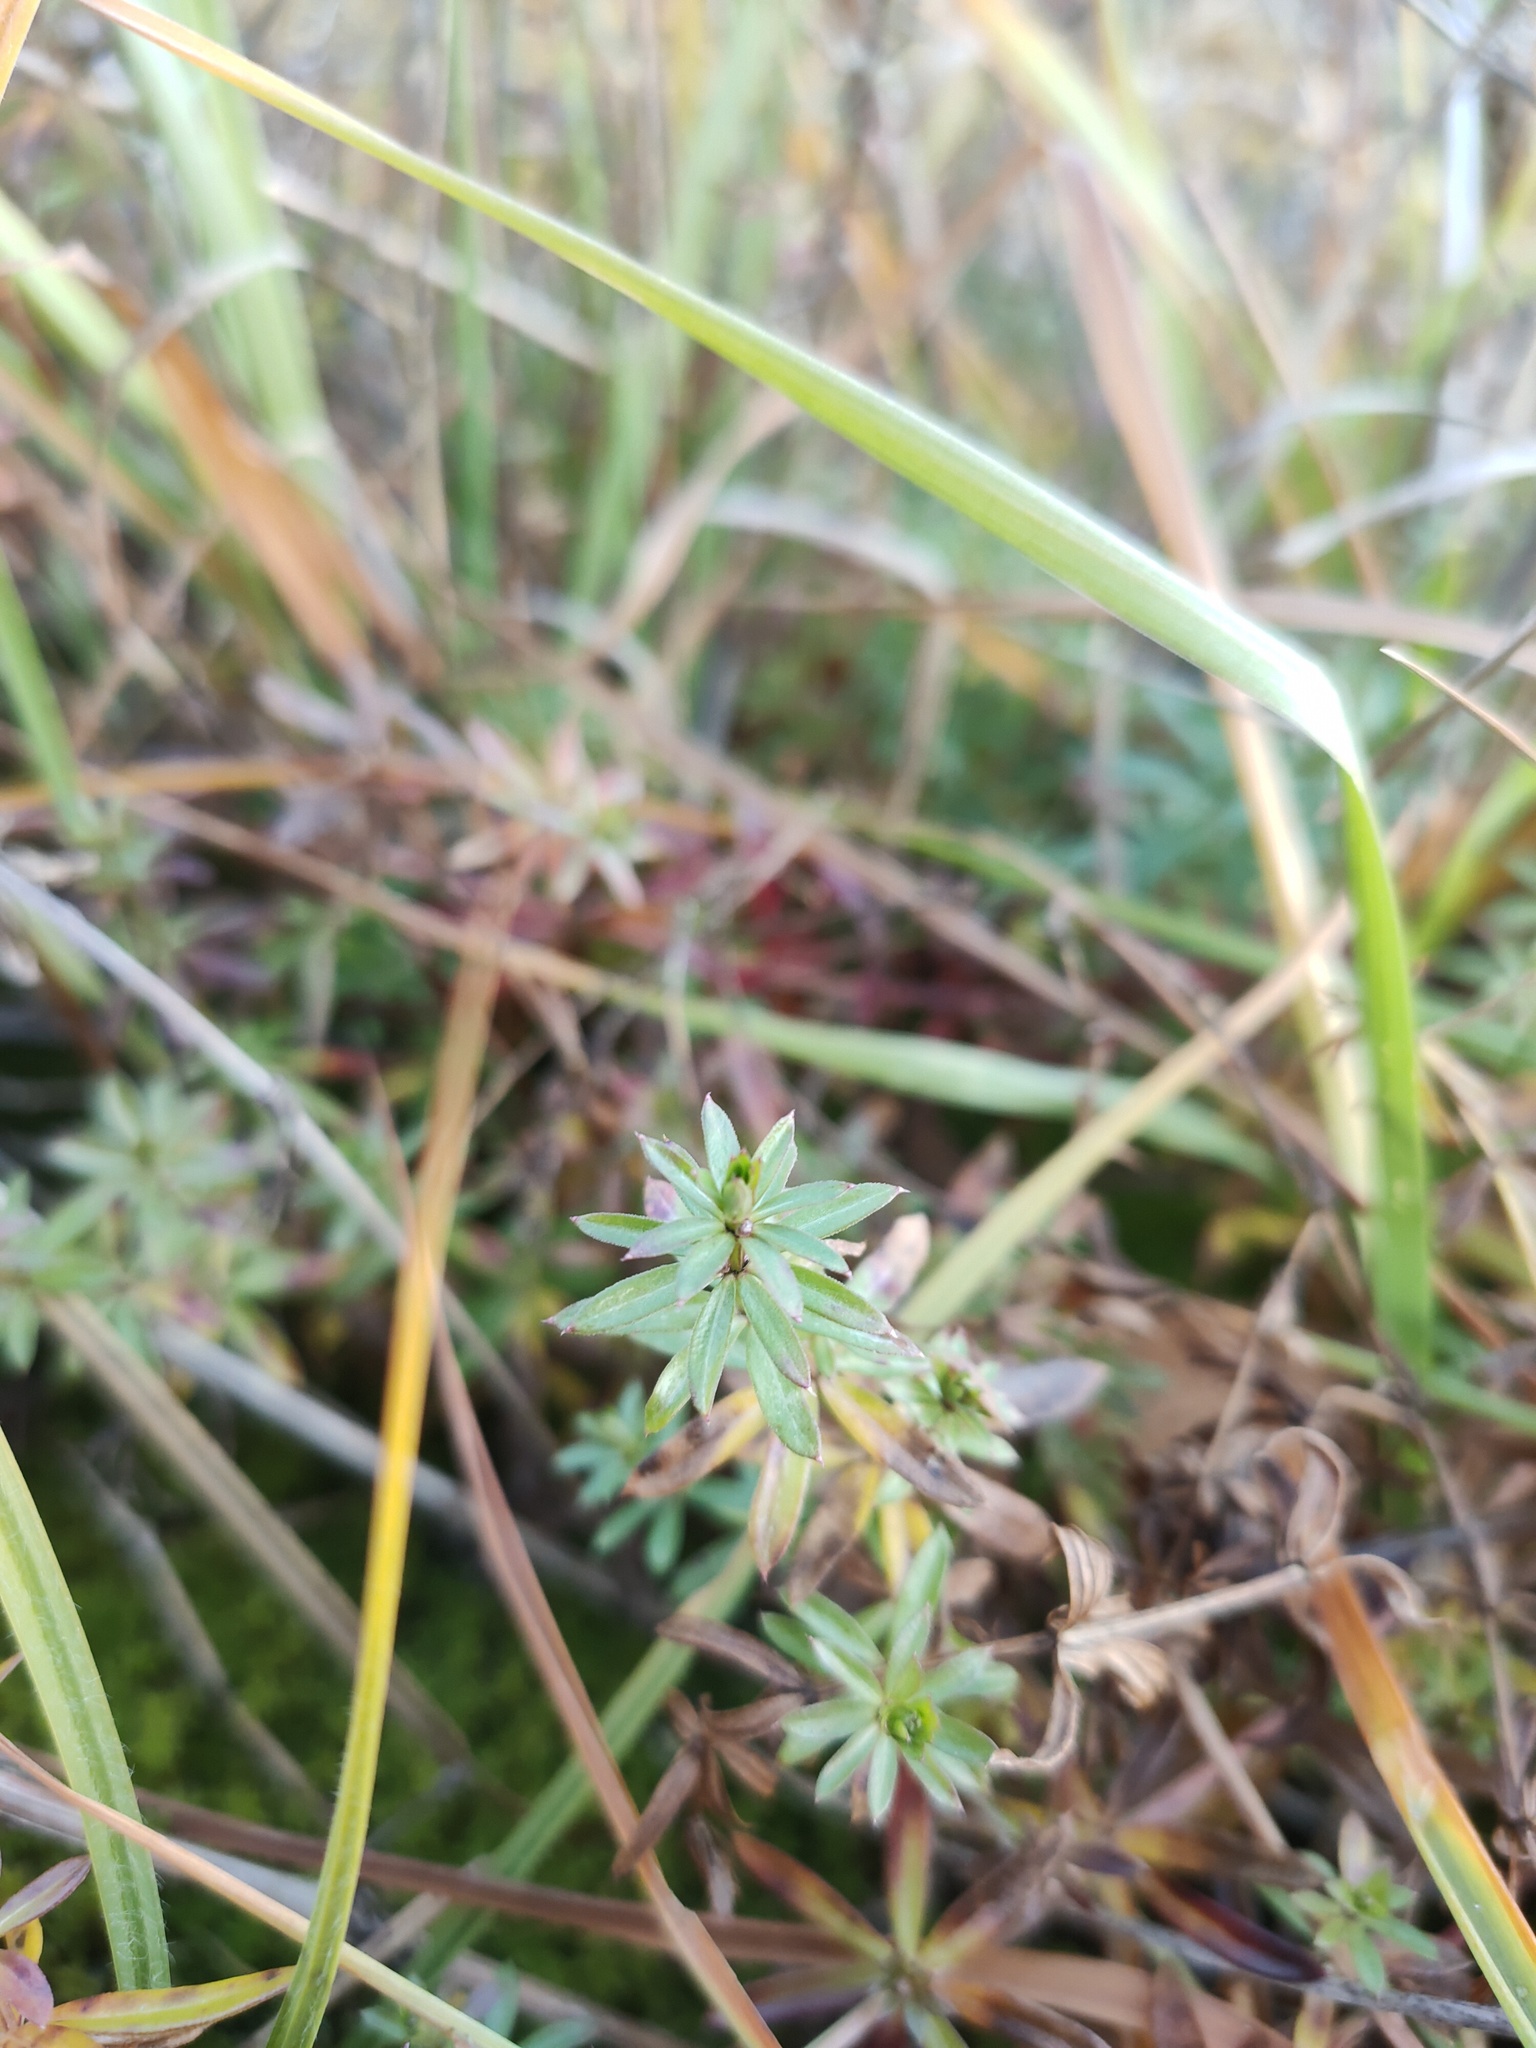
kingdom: Plantae
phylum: Tracheophyta
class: Magnoliopsida
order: Gentianales
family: Rubiaceae
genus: Galium
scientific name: Galium mollugo
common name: Hedge bedstraw
